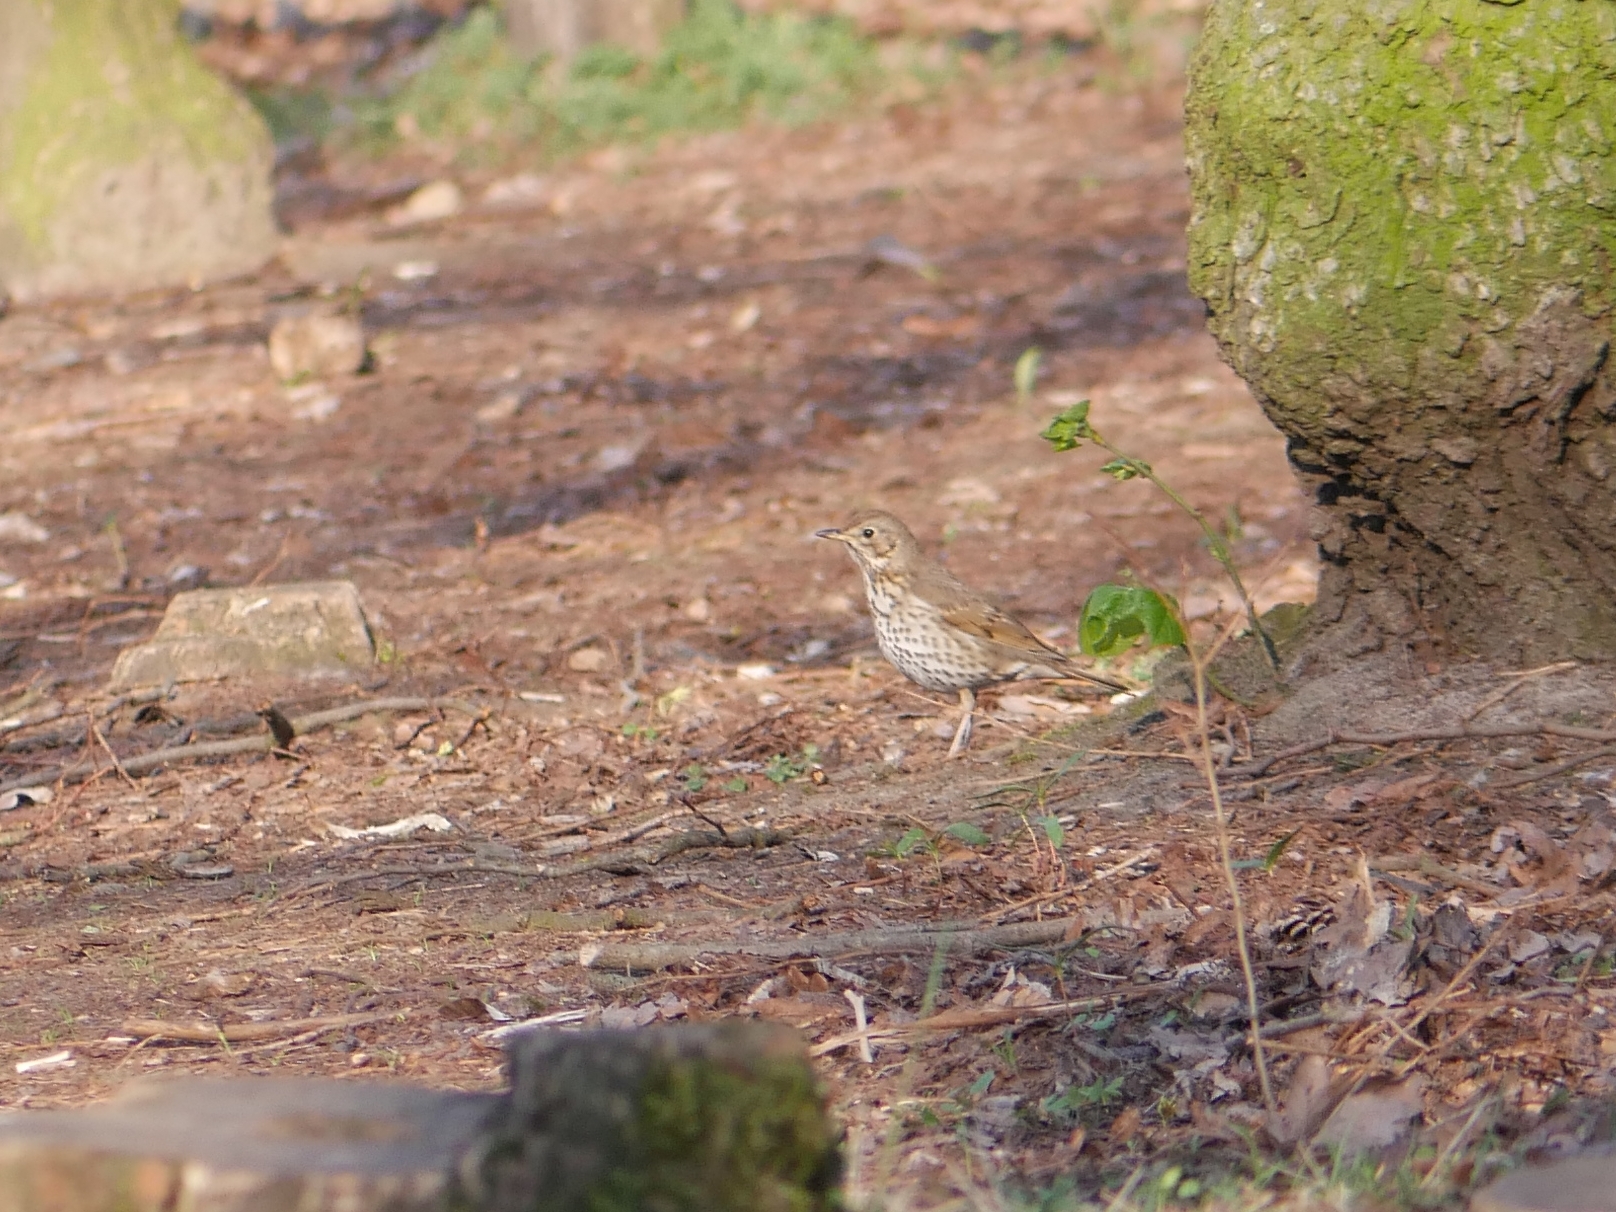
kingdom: Animalia
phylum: Chordata
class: Aves
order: Passeriformes
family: Turdidae
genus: Turdus
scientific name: Turdus philomelos
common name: Song thrush
